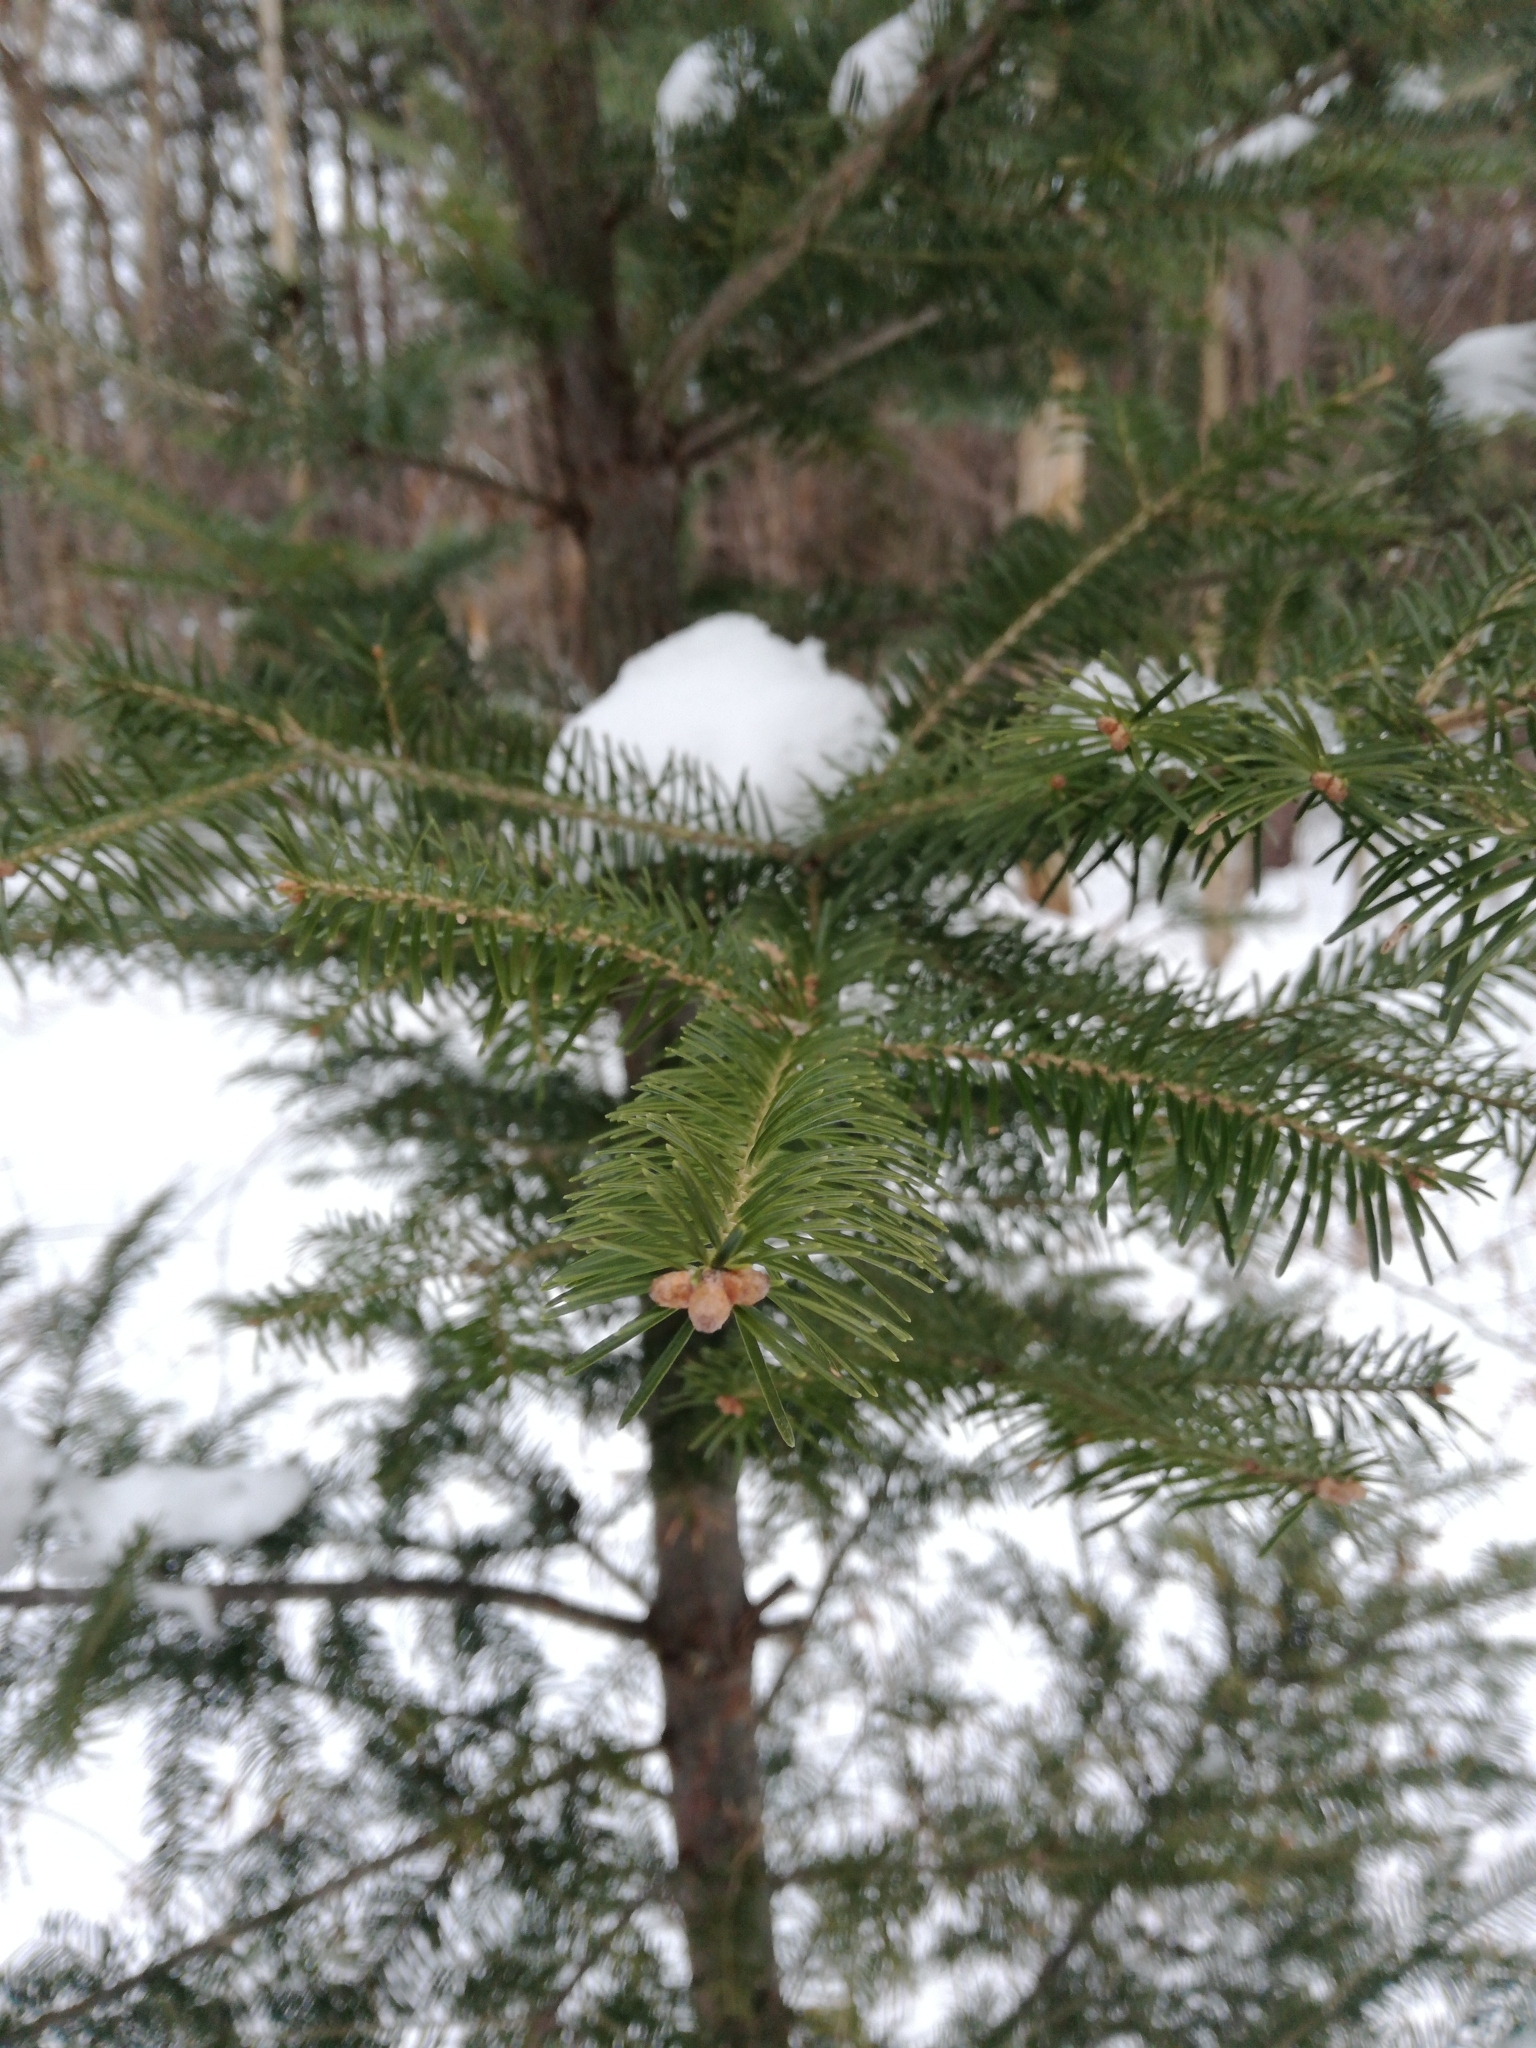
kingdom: Plantae
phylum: Tracheophyta
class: Pinopsida
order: Pinales
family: Pinaceae
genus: Abies
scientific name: Abies balsamea
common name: Balsam fir
